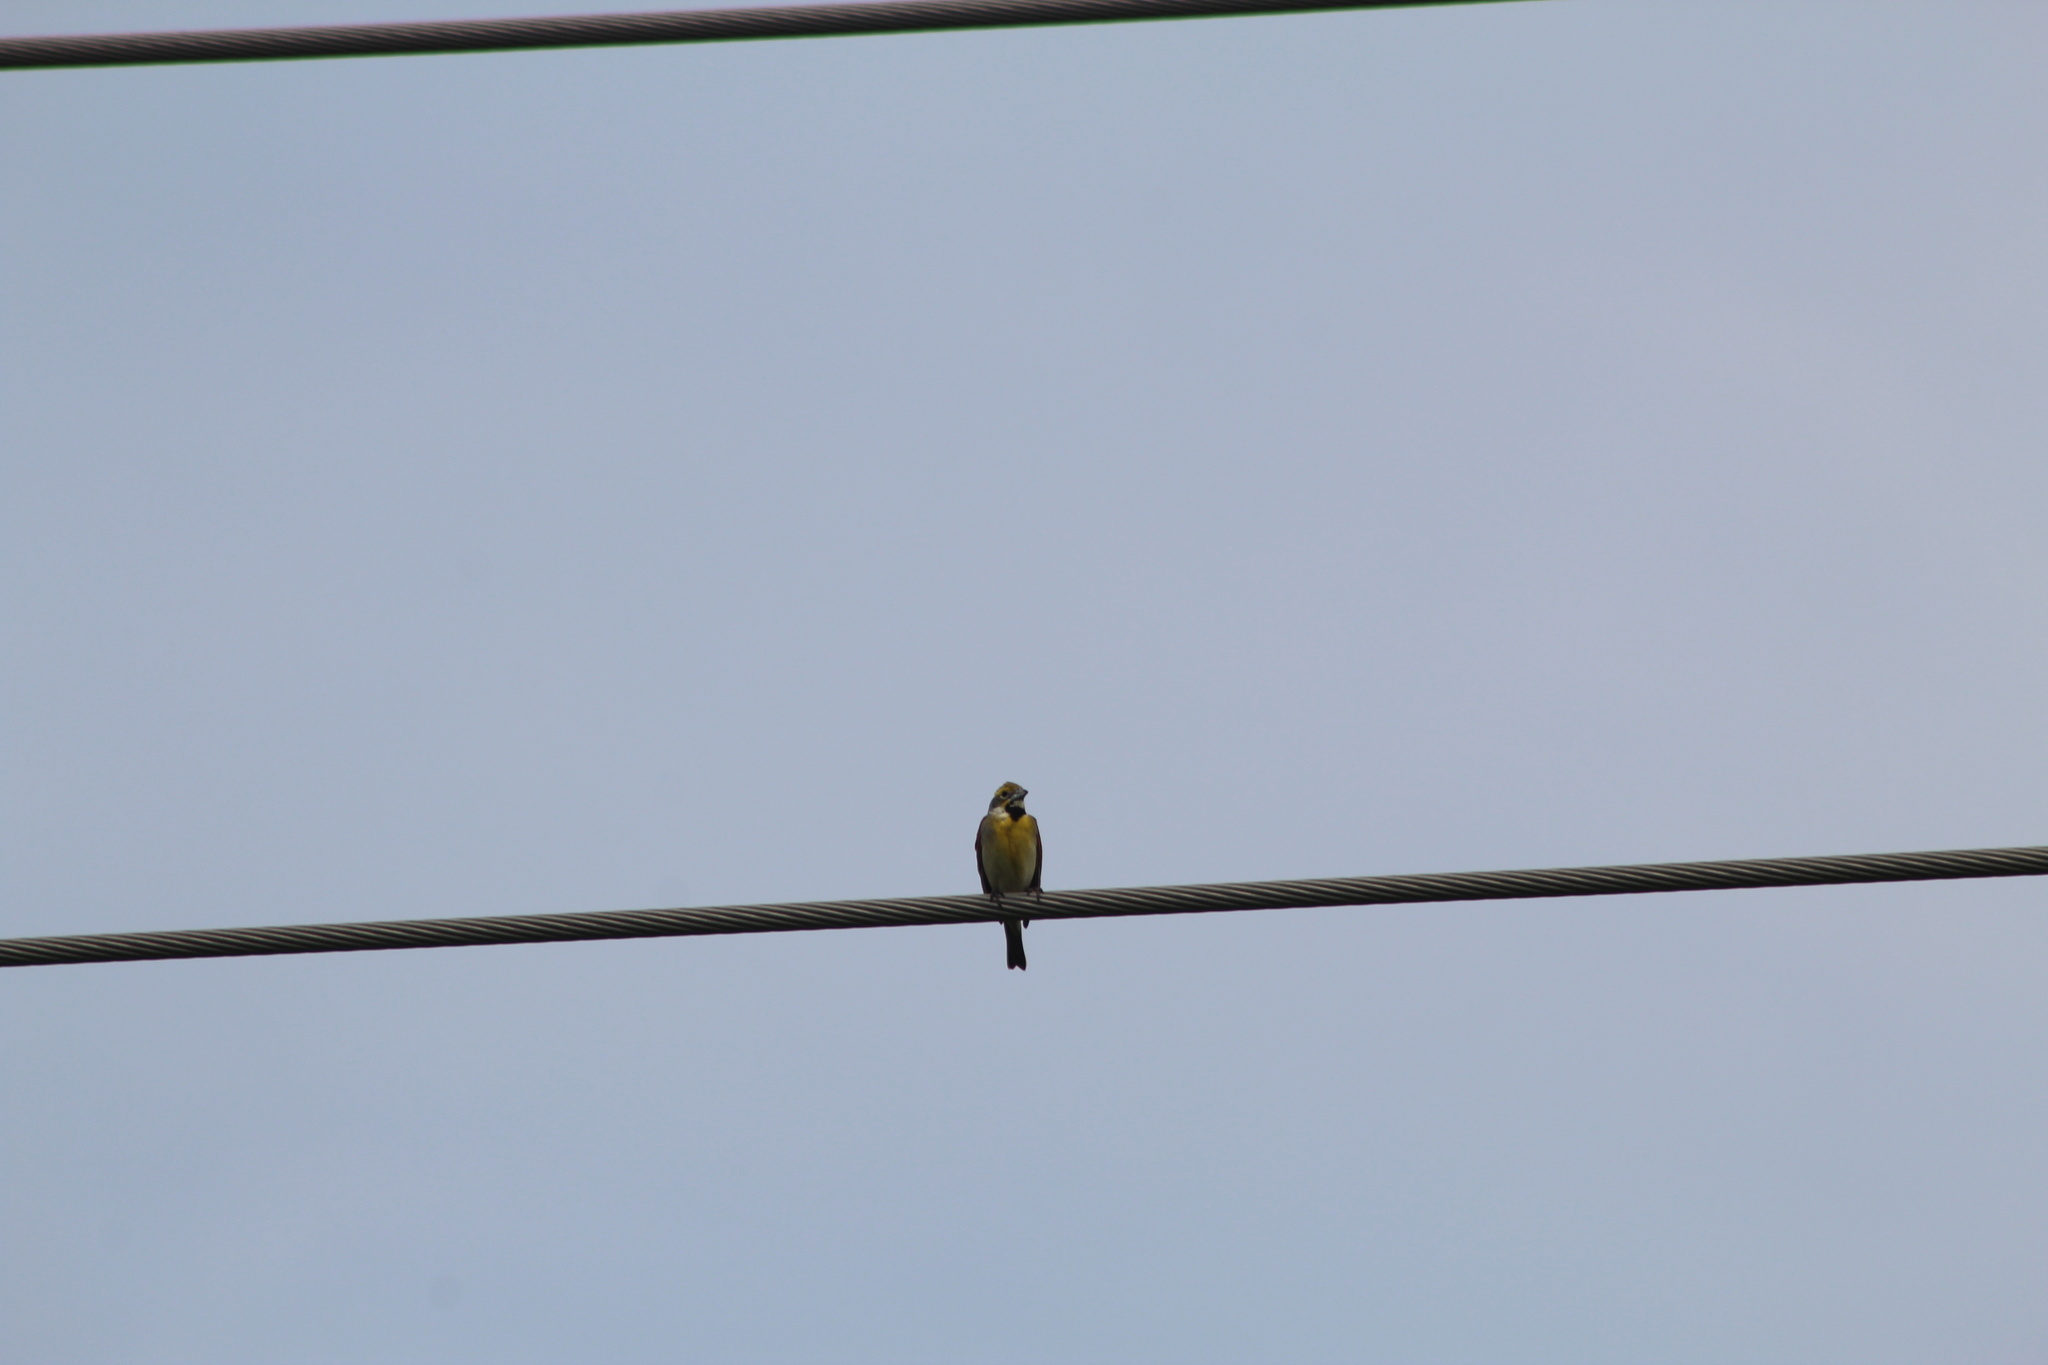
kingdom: Animalia
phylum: Chordata
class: Aves
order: Passeriformes
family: Cardinalidae
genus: Spiza
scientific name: Spiza americana
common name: Dickcissel
